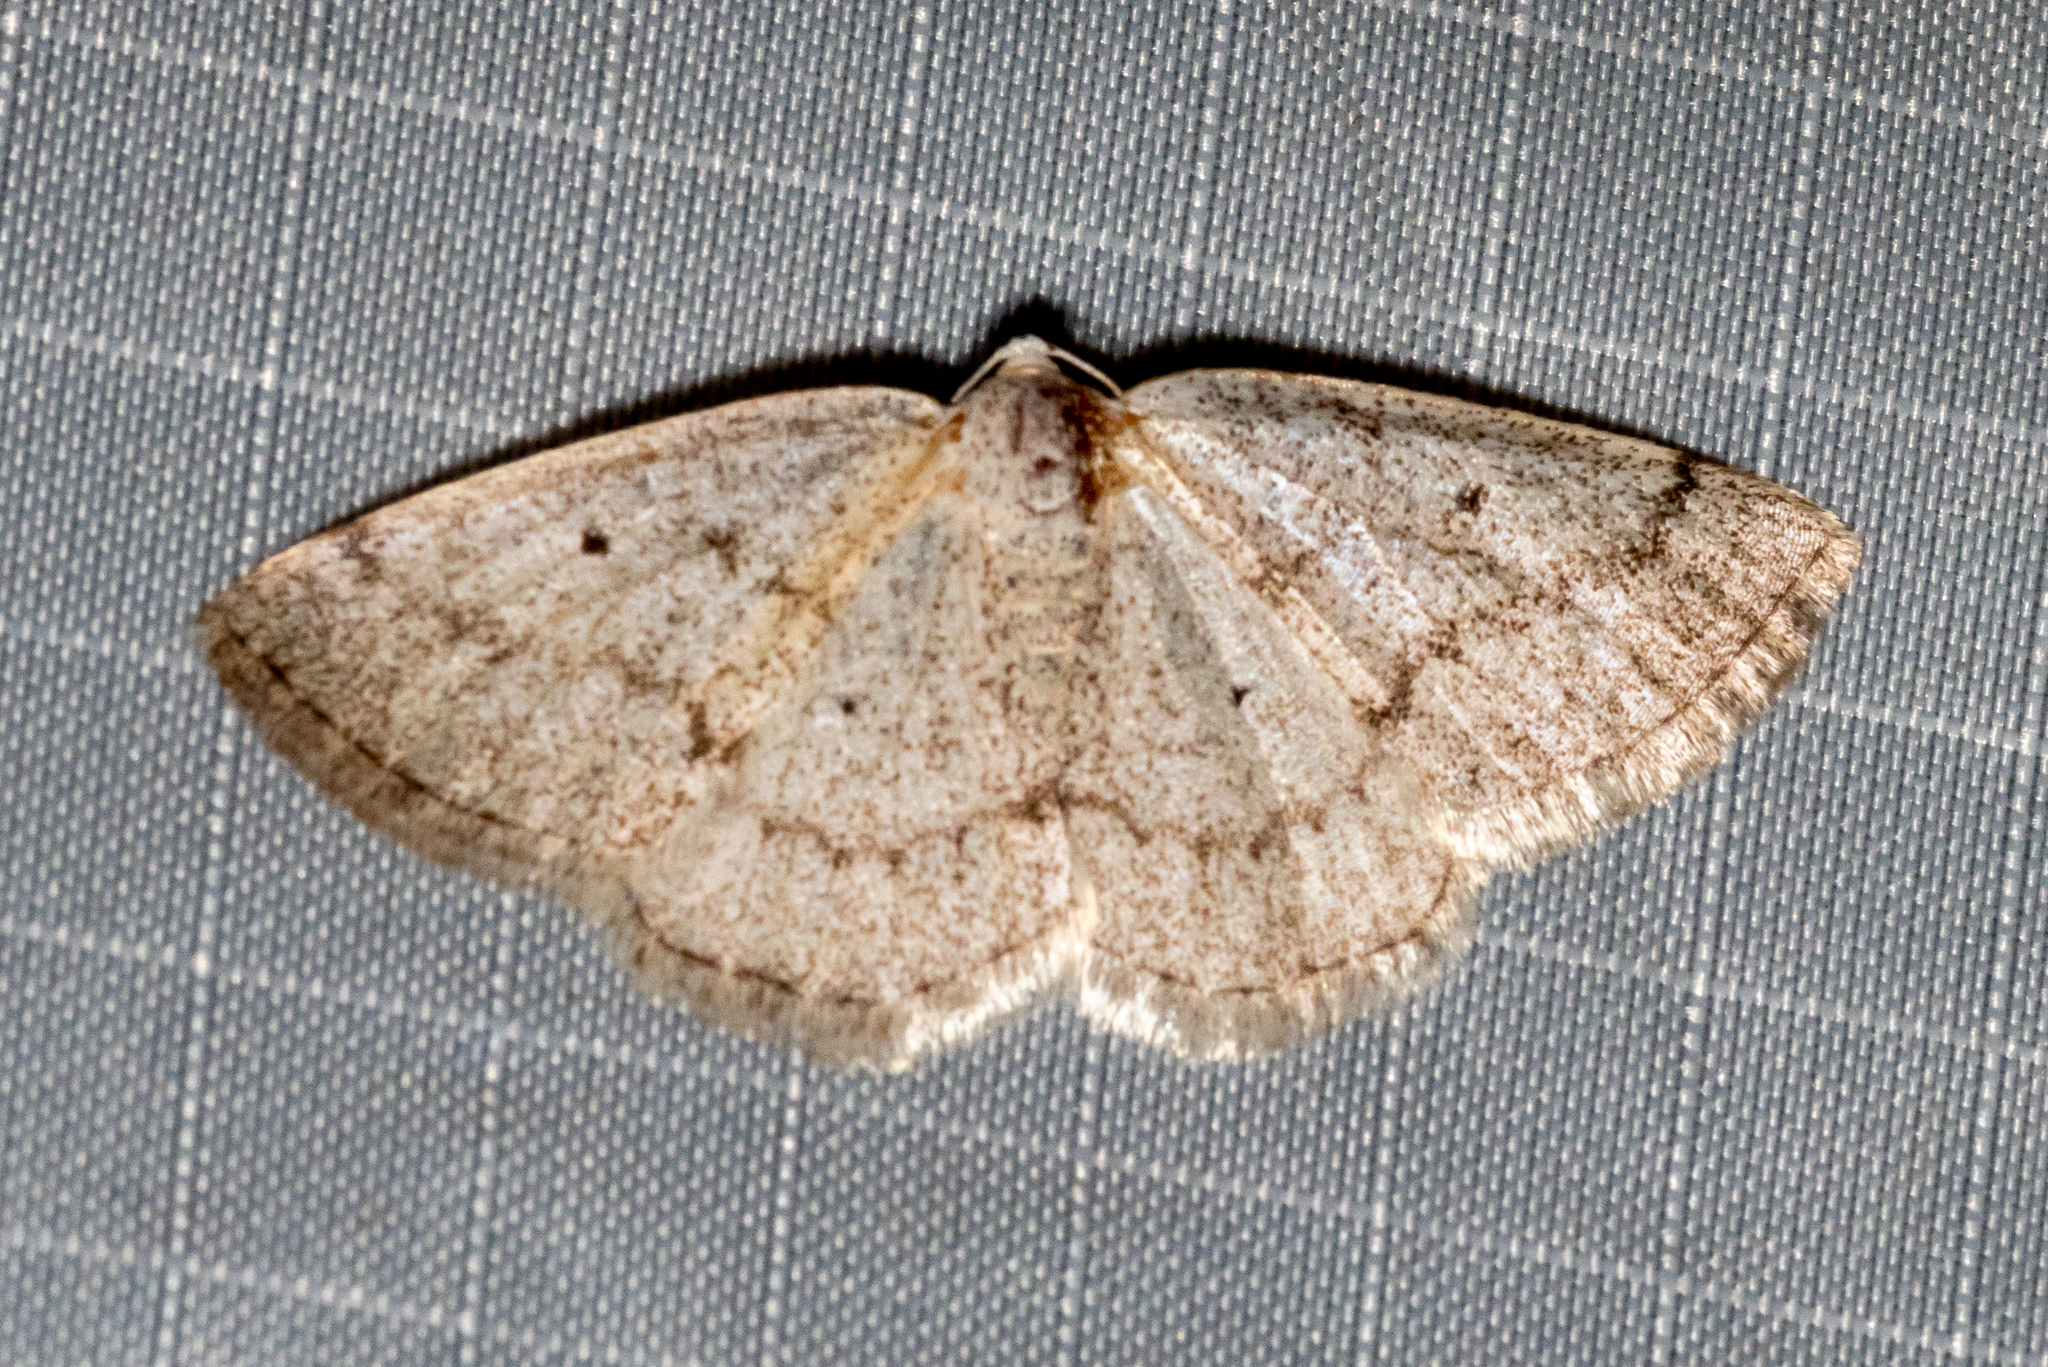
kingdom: Animalia
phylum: Arthropoda
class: Insecta
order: Lepidoptera
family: Geometridae
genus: Lomographa
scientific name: Lomographa glomeraria
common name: Gray spring moth
